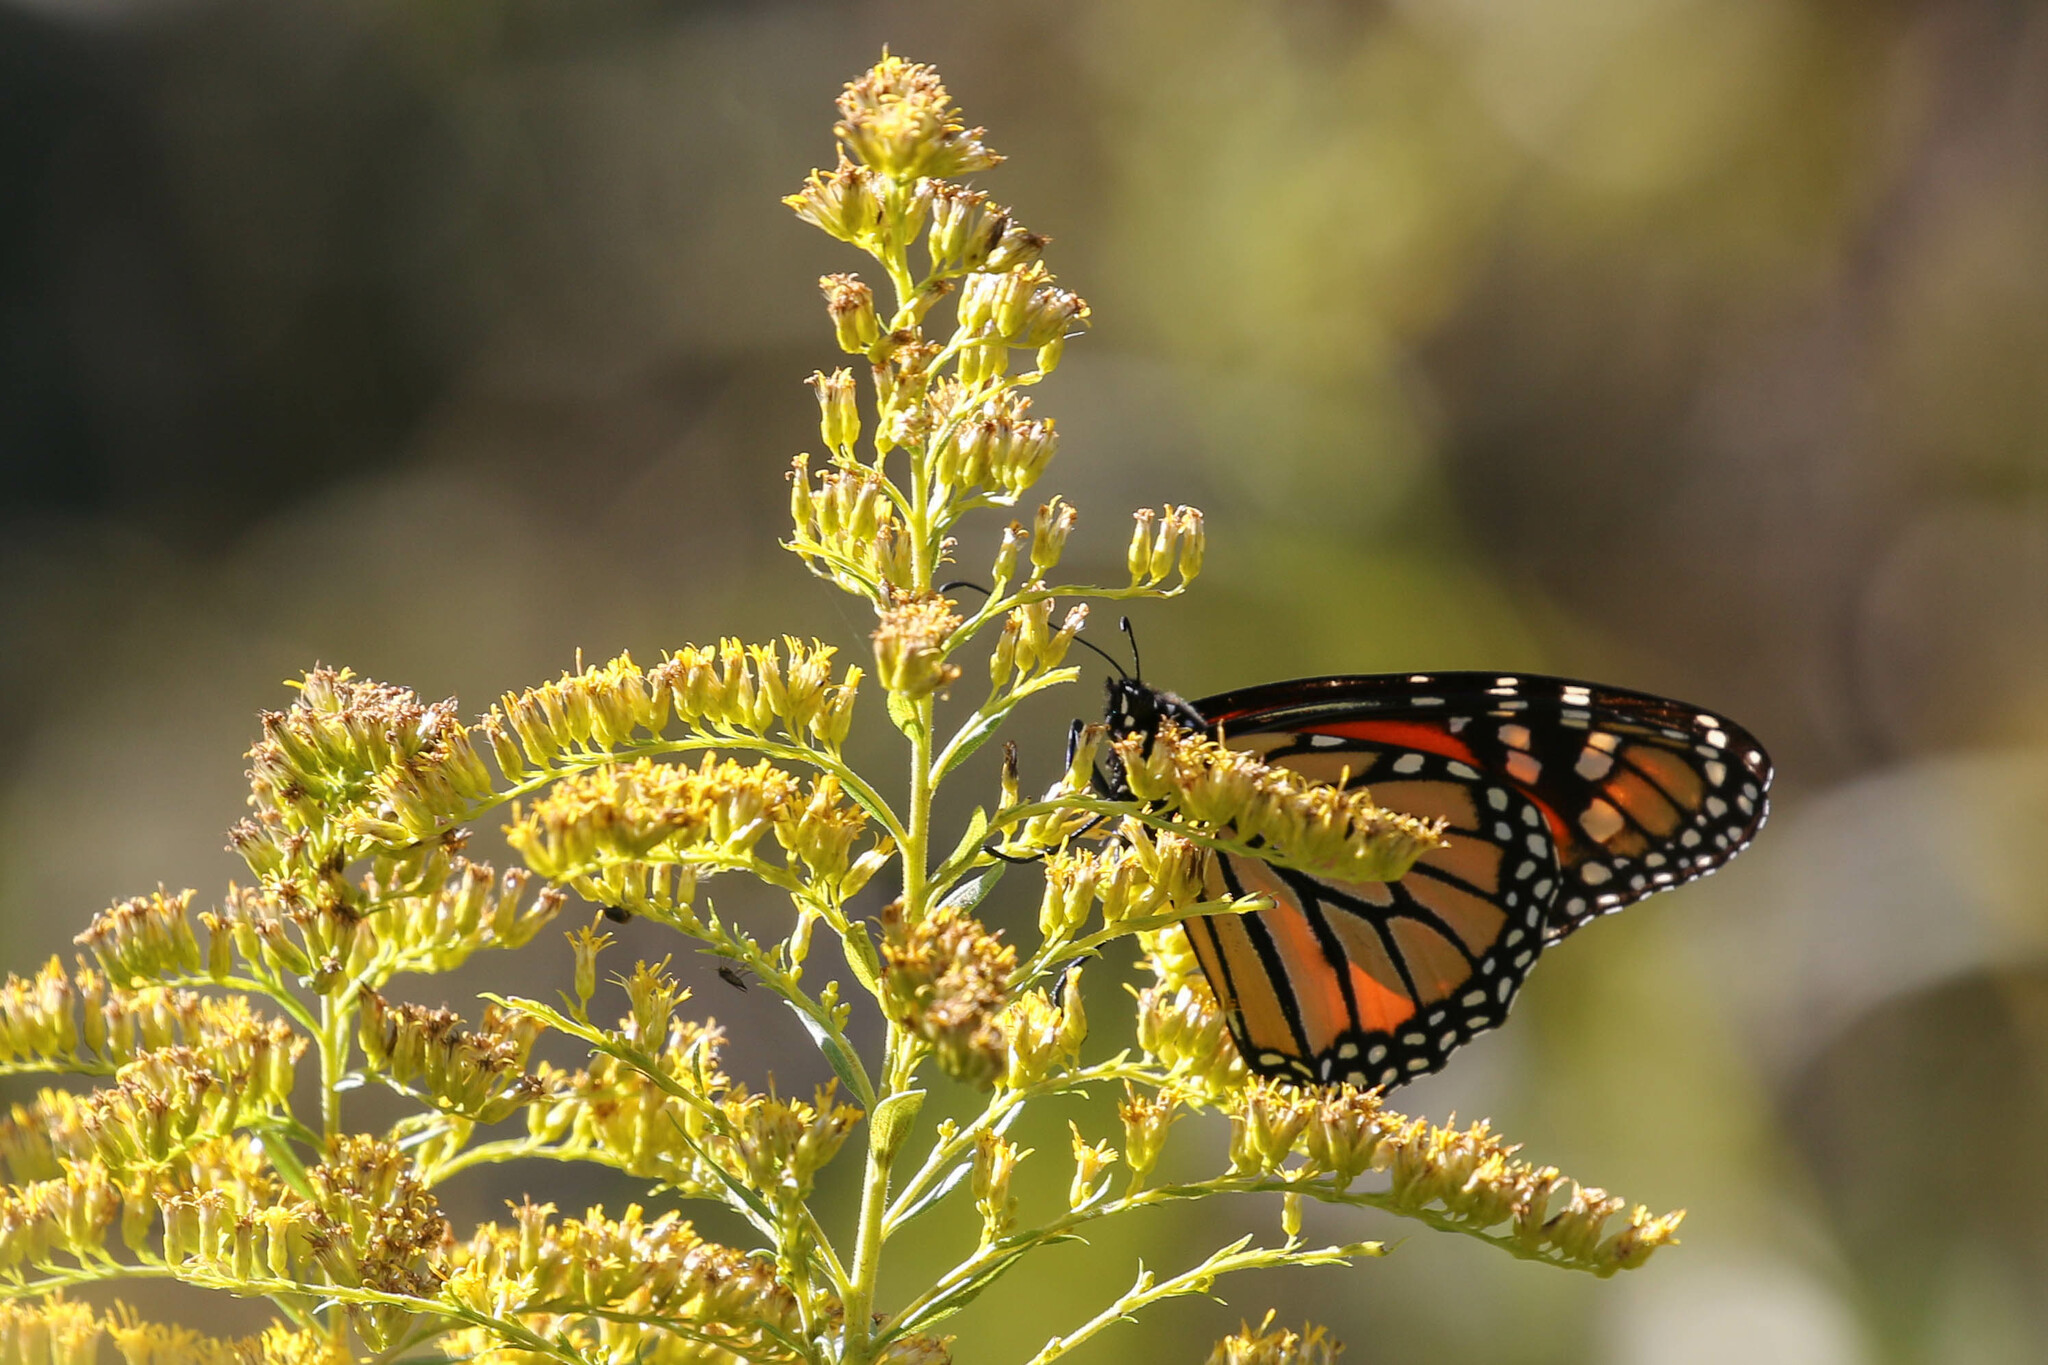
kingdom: Animalia
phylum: Arthropoda
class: Insecta
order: Lepidoptera
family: Nymphalidae
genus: Danaus
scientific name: Danaus plexippus
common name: Monarch
